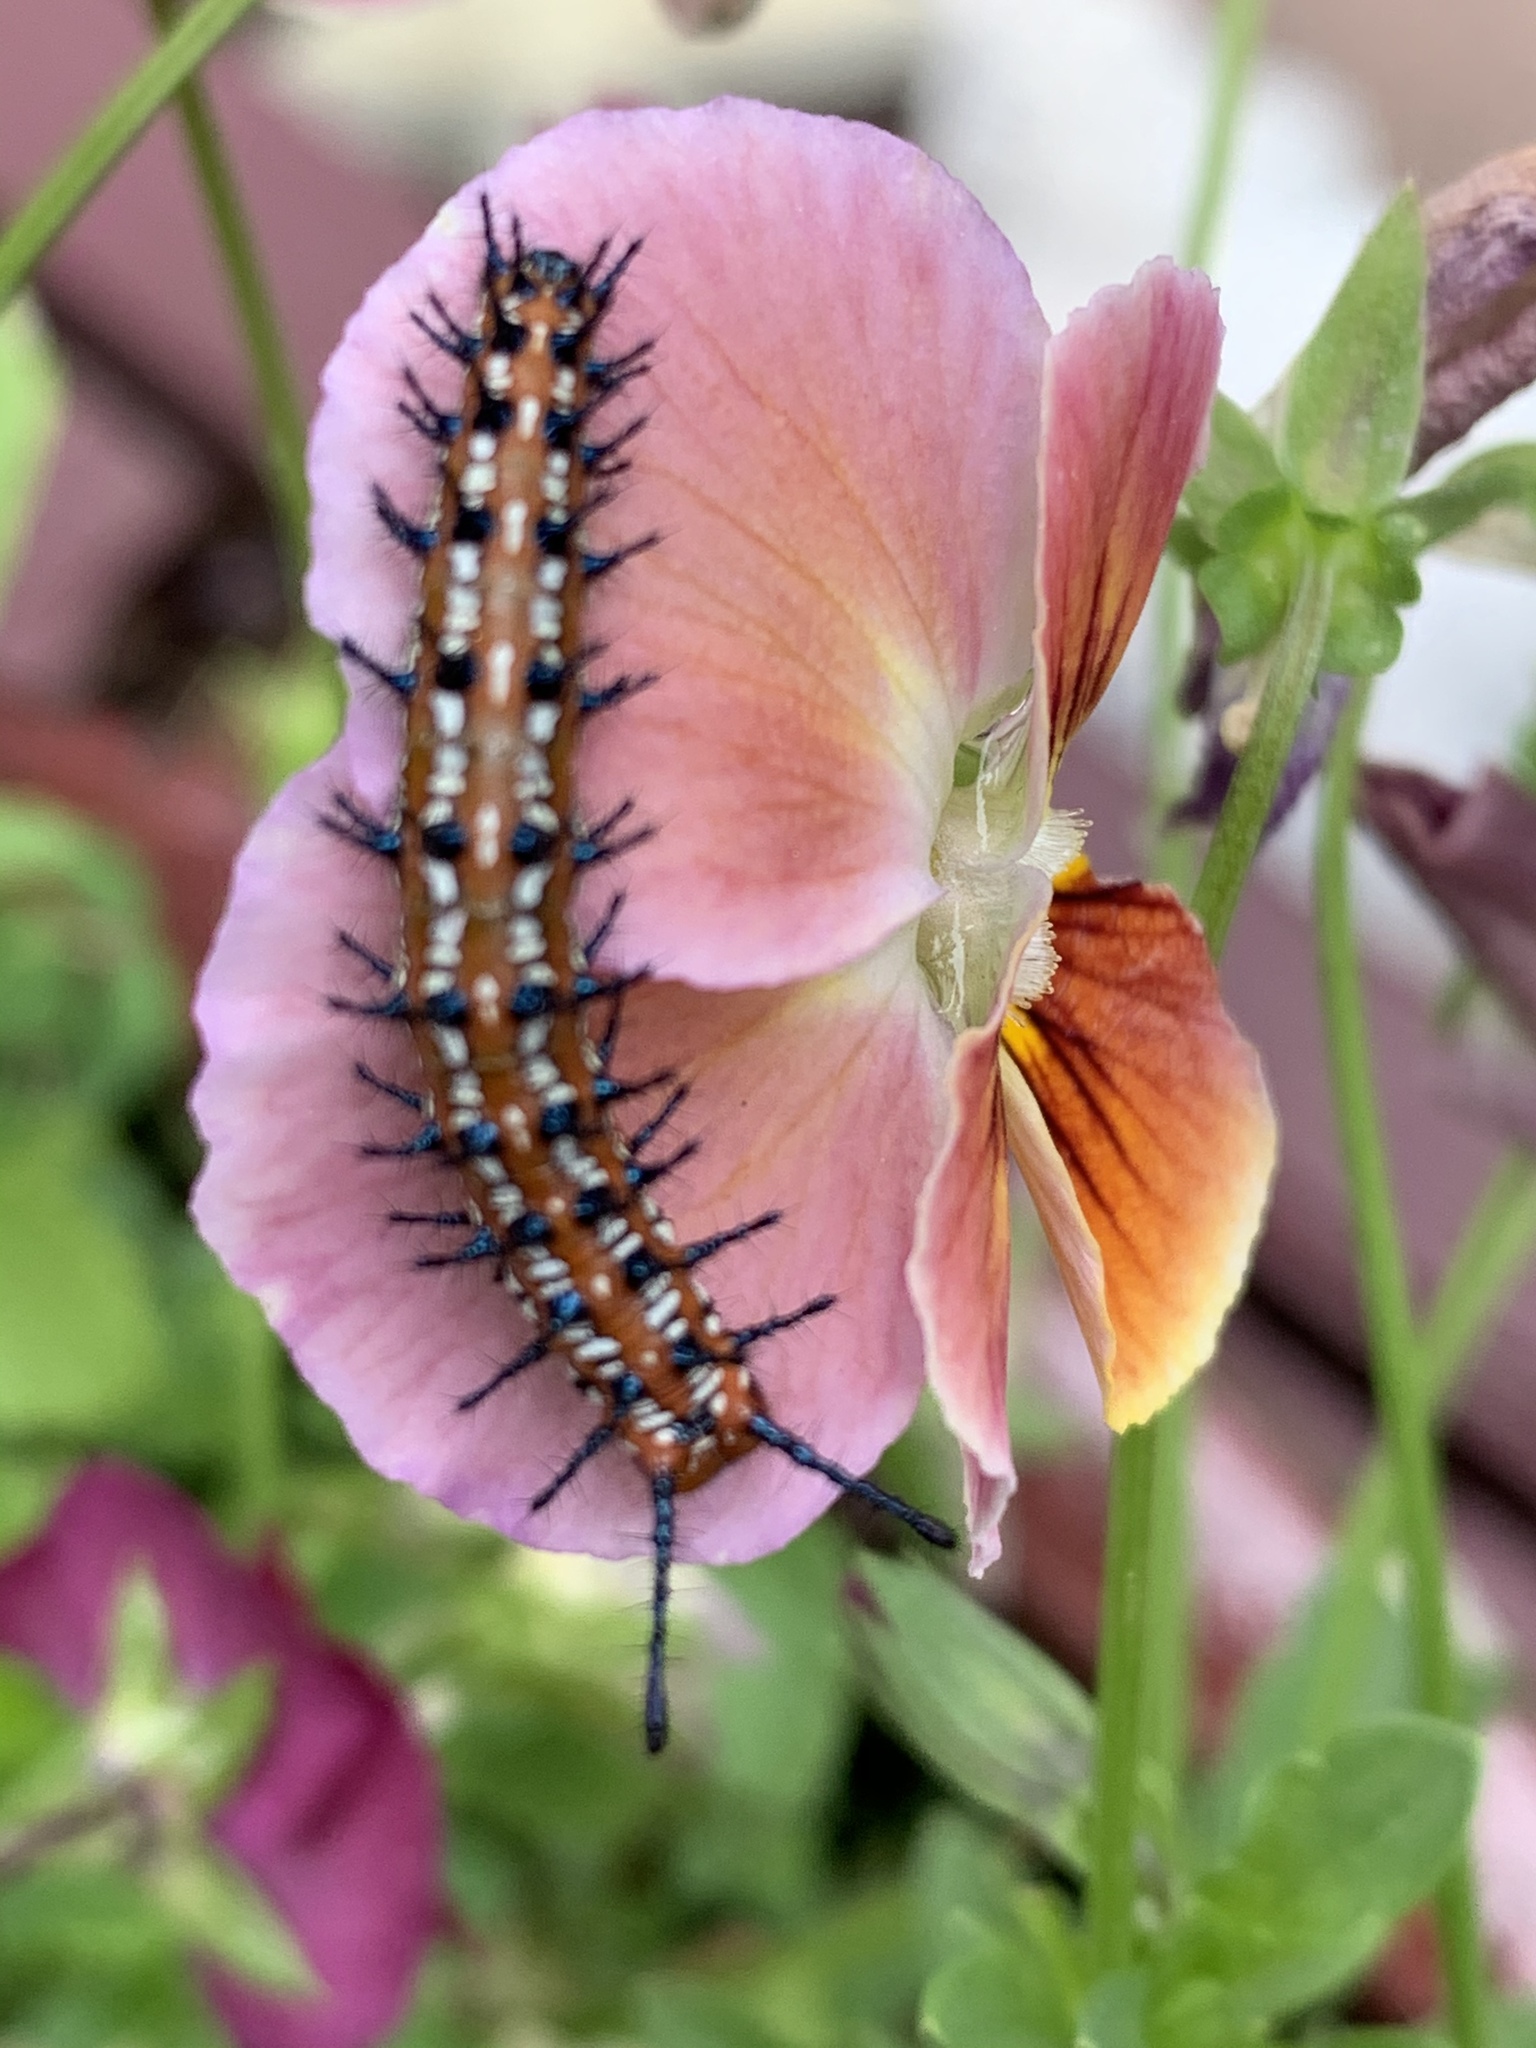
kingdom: Animalia
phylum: Arthropoda
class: Insecta
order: Lepidoptera
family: Nymphalidae
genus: Euptoieta
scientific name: Euptoieta claudia
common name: Variegated fritillary
